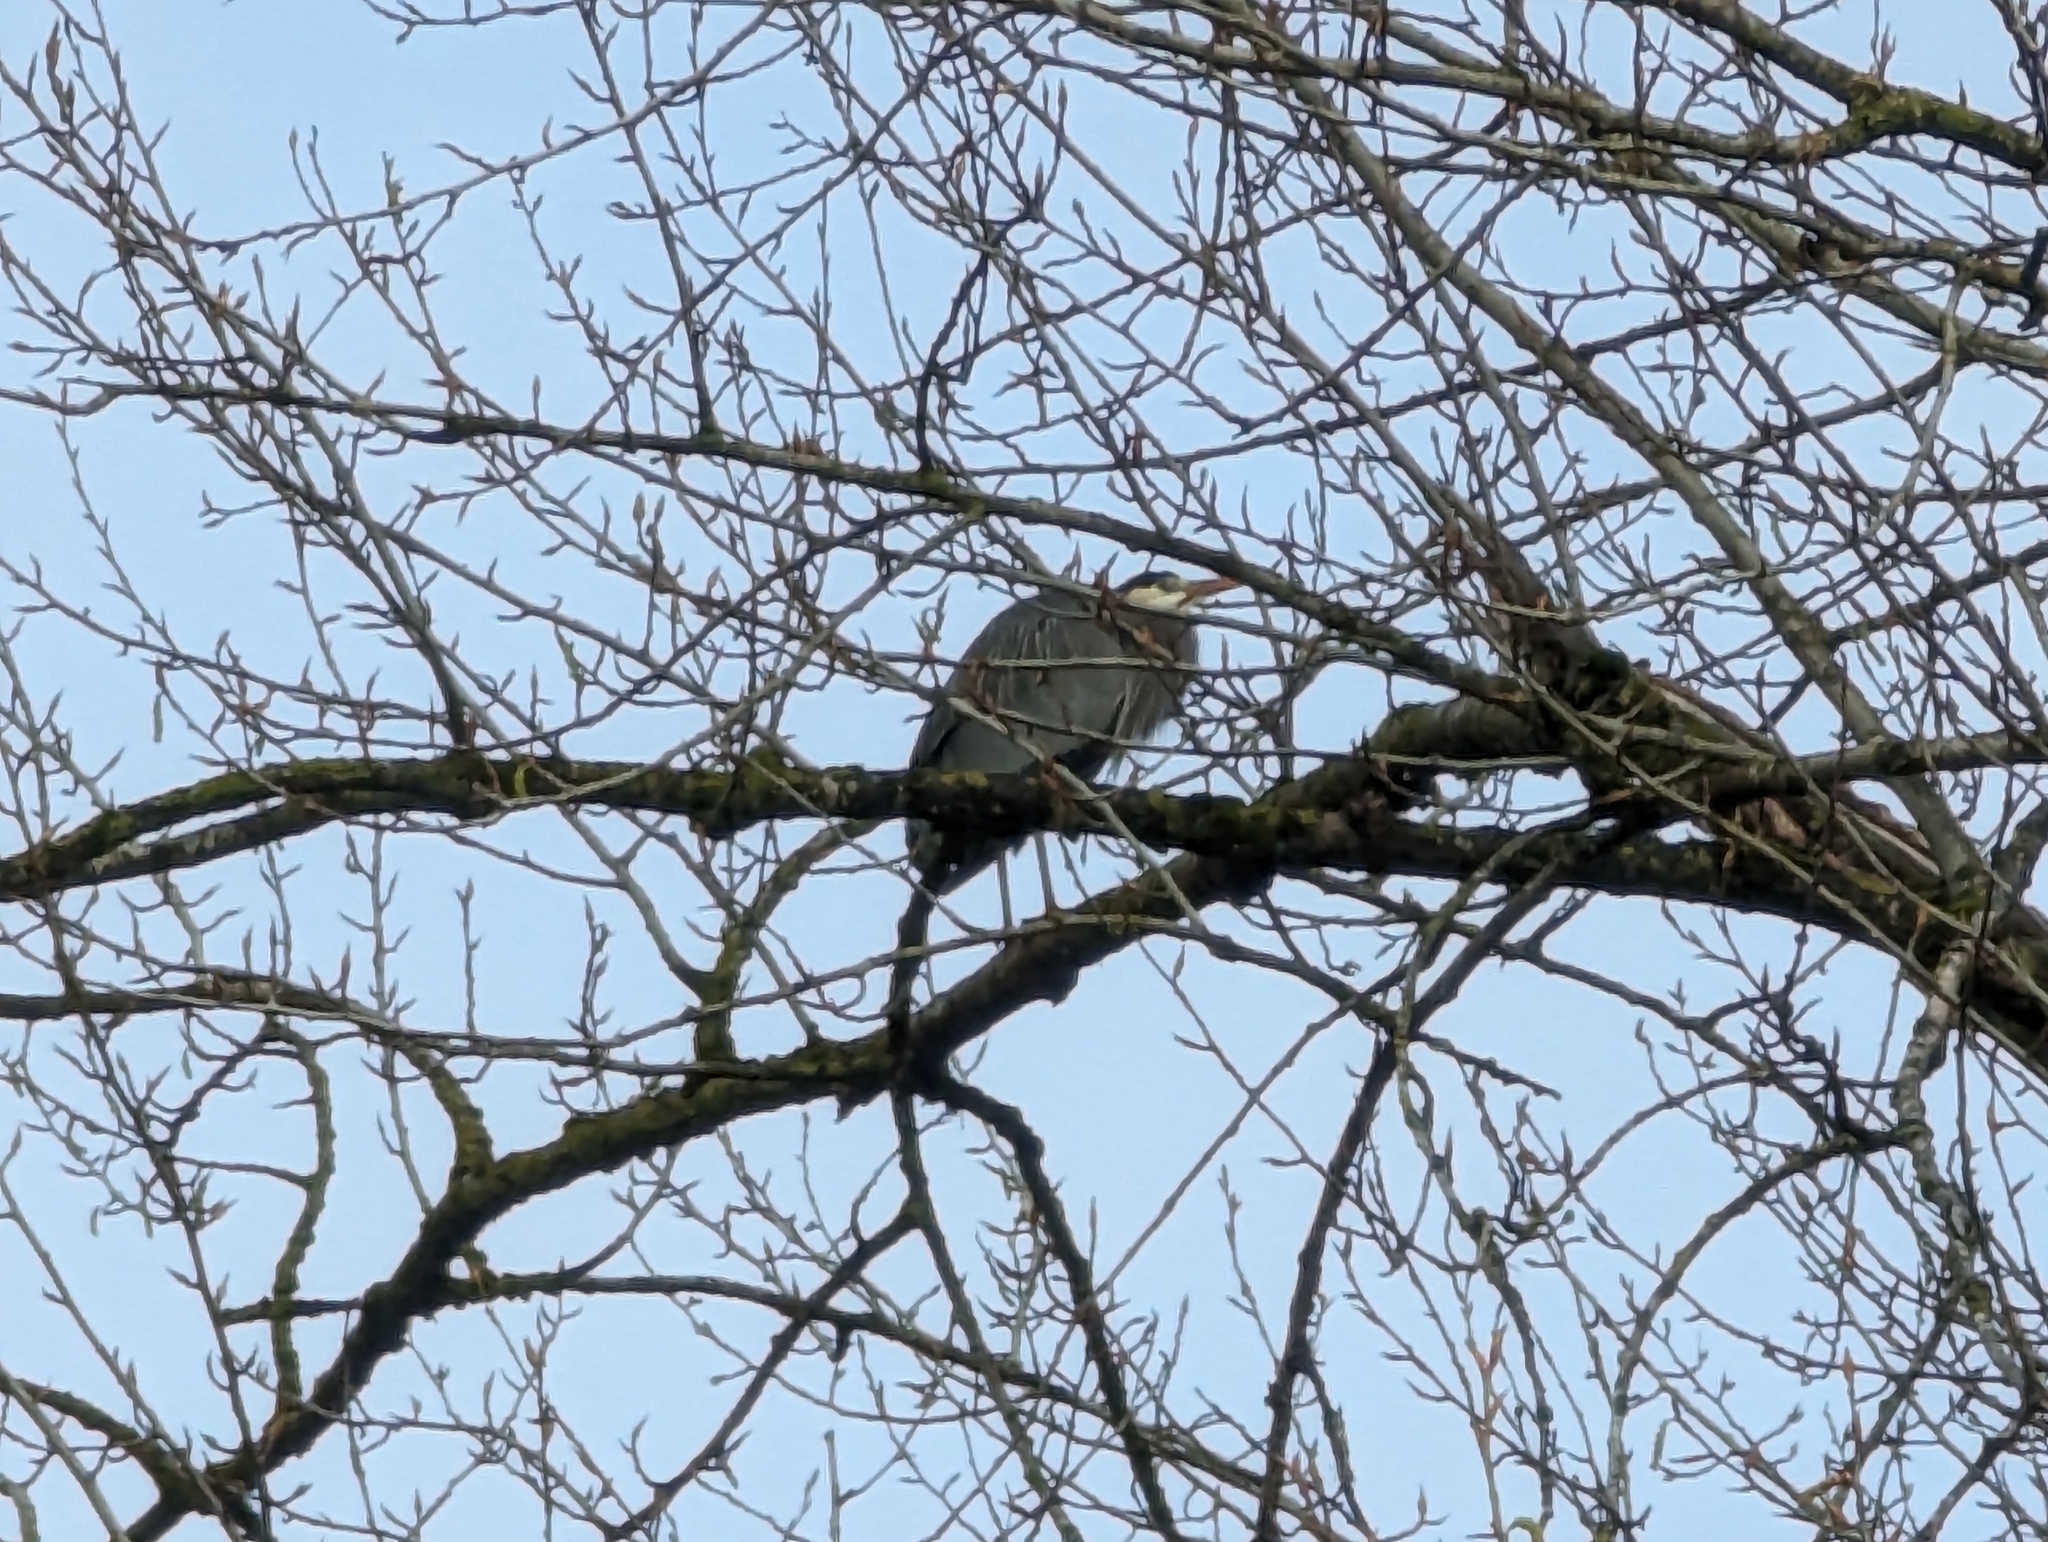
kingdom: Animalia
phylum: Chordata
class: Aves
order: Pelecaniformes
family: Ardeidae
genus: Ardea
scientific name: Ardea herodias
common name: Great blue heron
